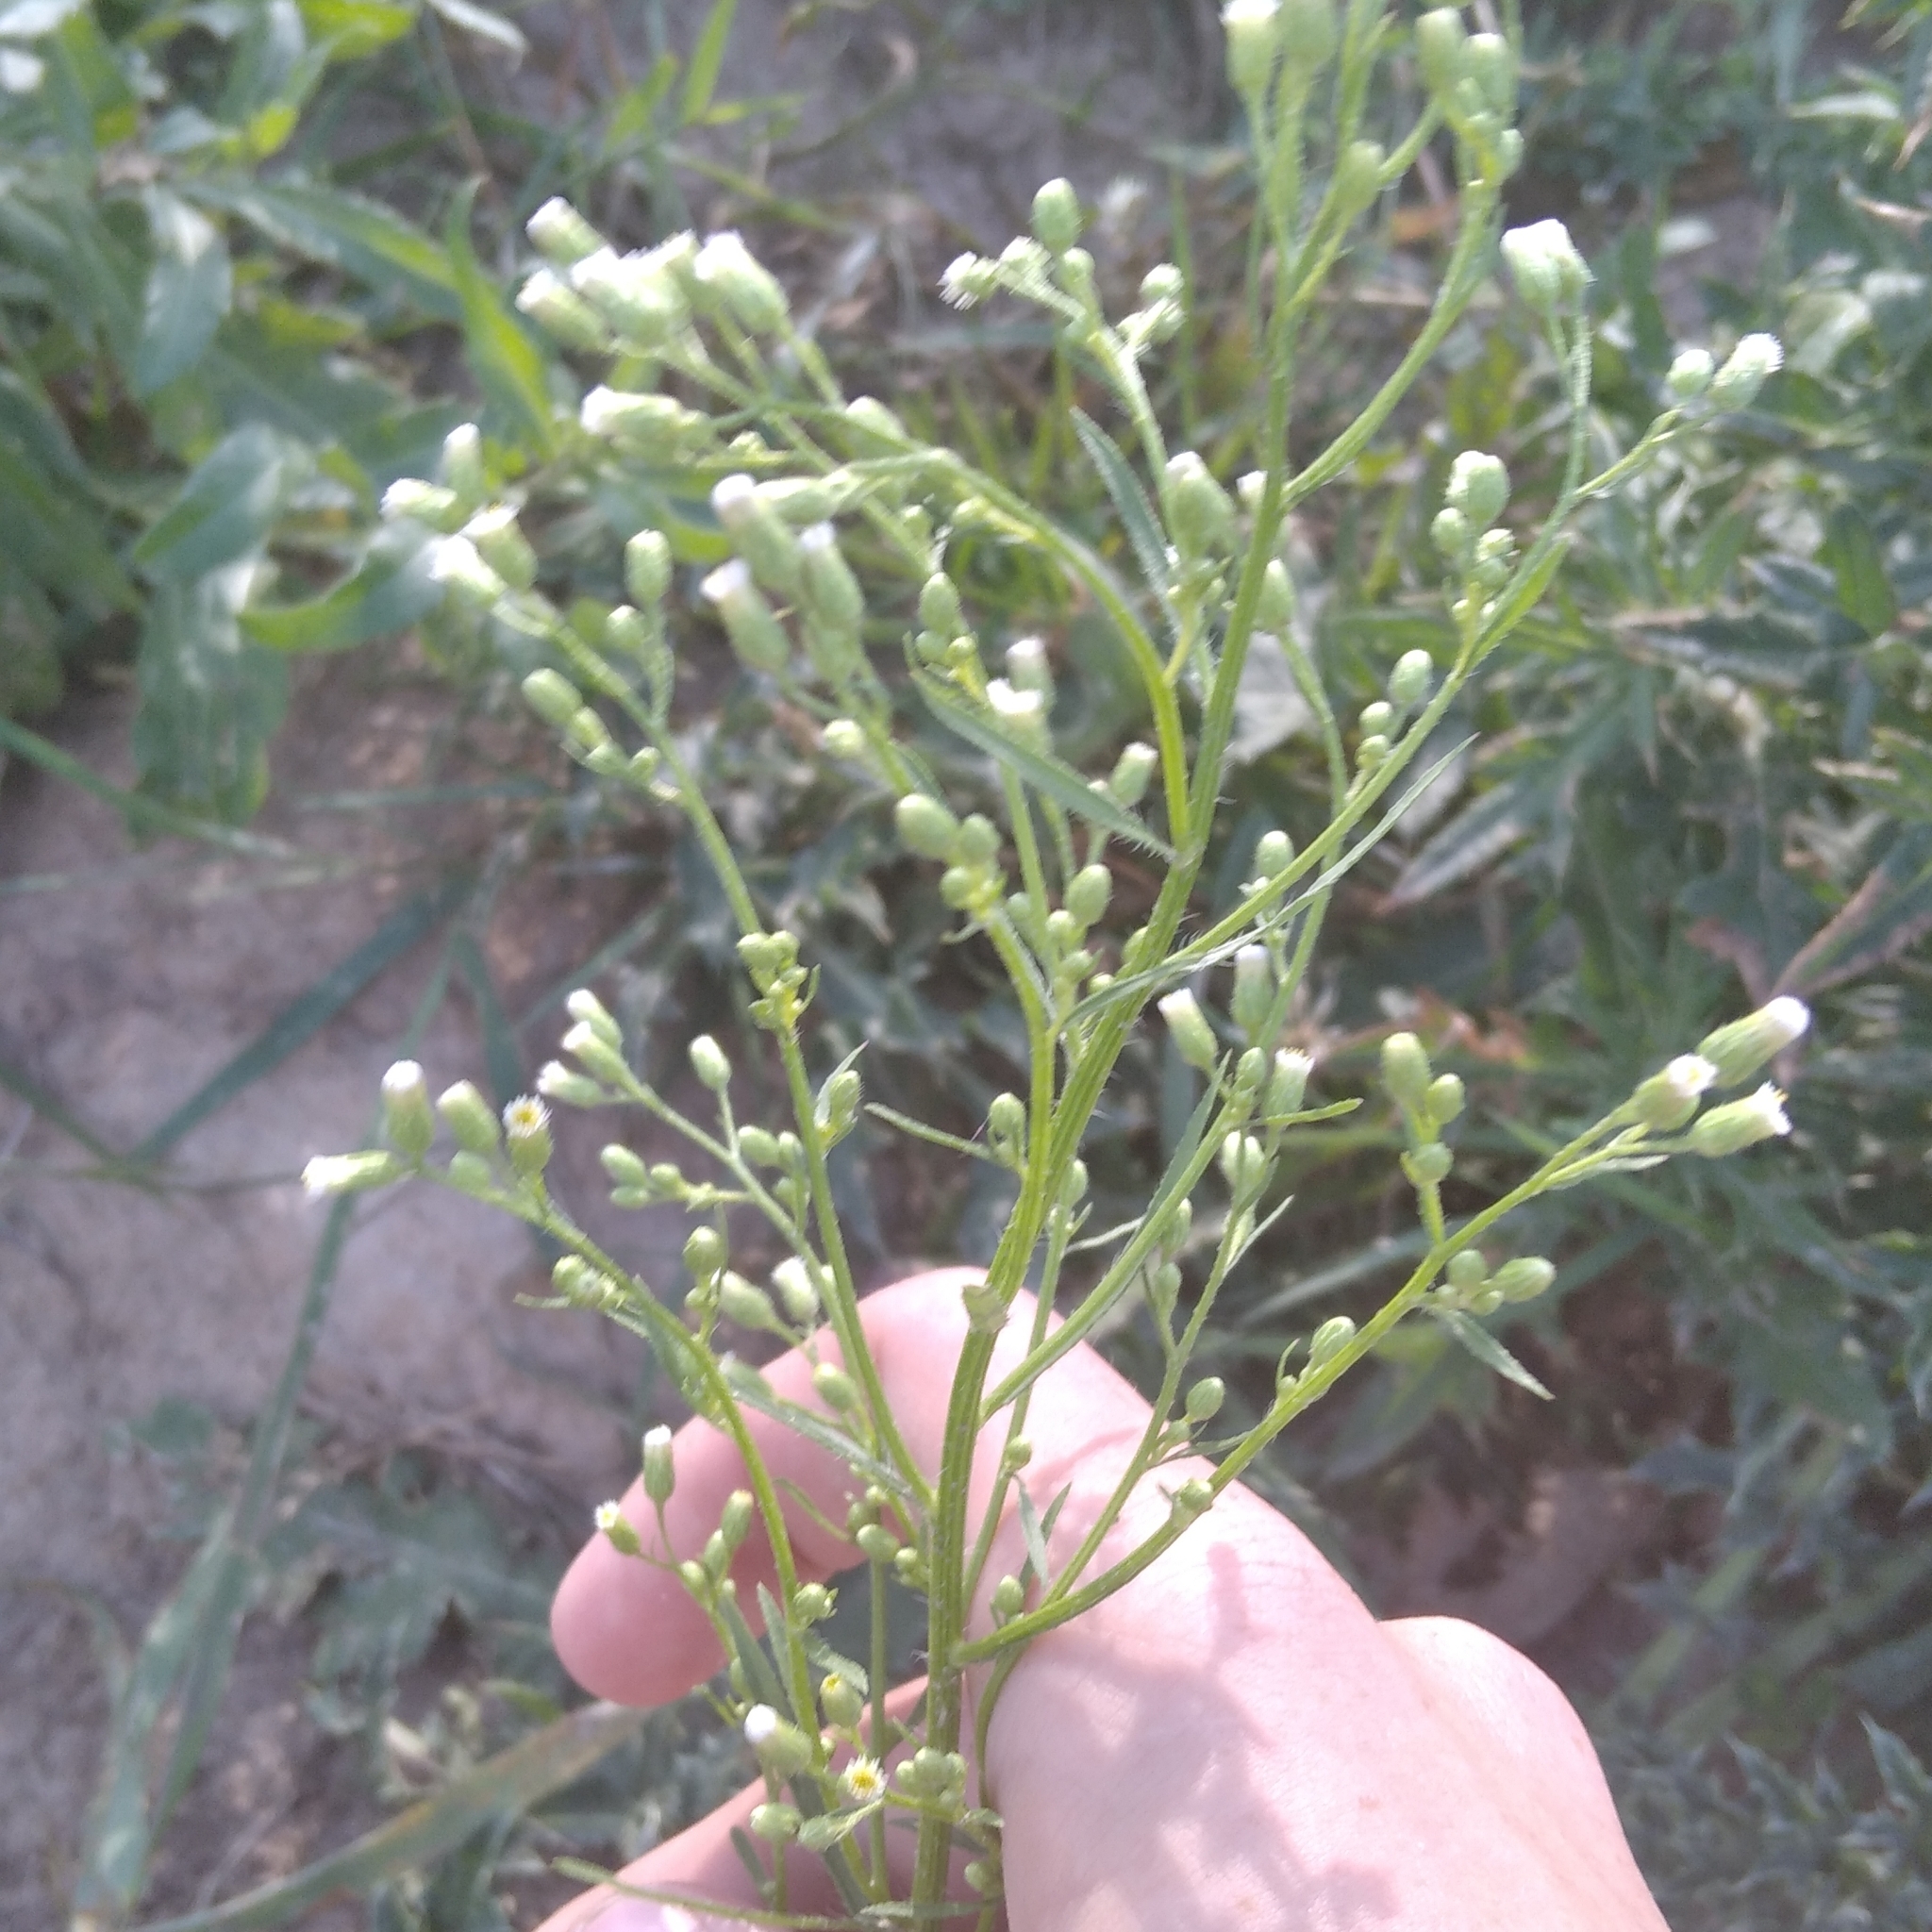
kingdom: Plantae
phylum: Tracheophyta
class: Magnoliopsida
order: Asterales
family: Asteraceae
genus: Erigeron
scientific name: Erigeron canadensis
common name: Canadian fleabane
